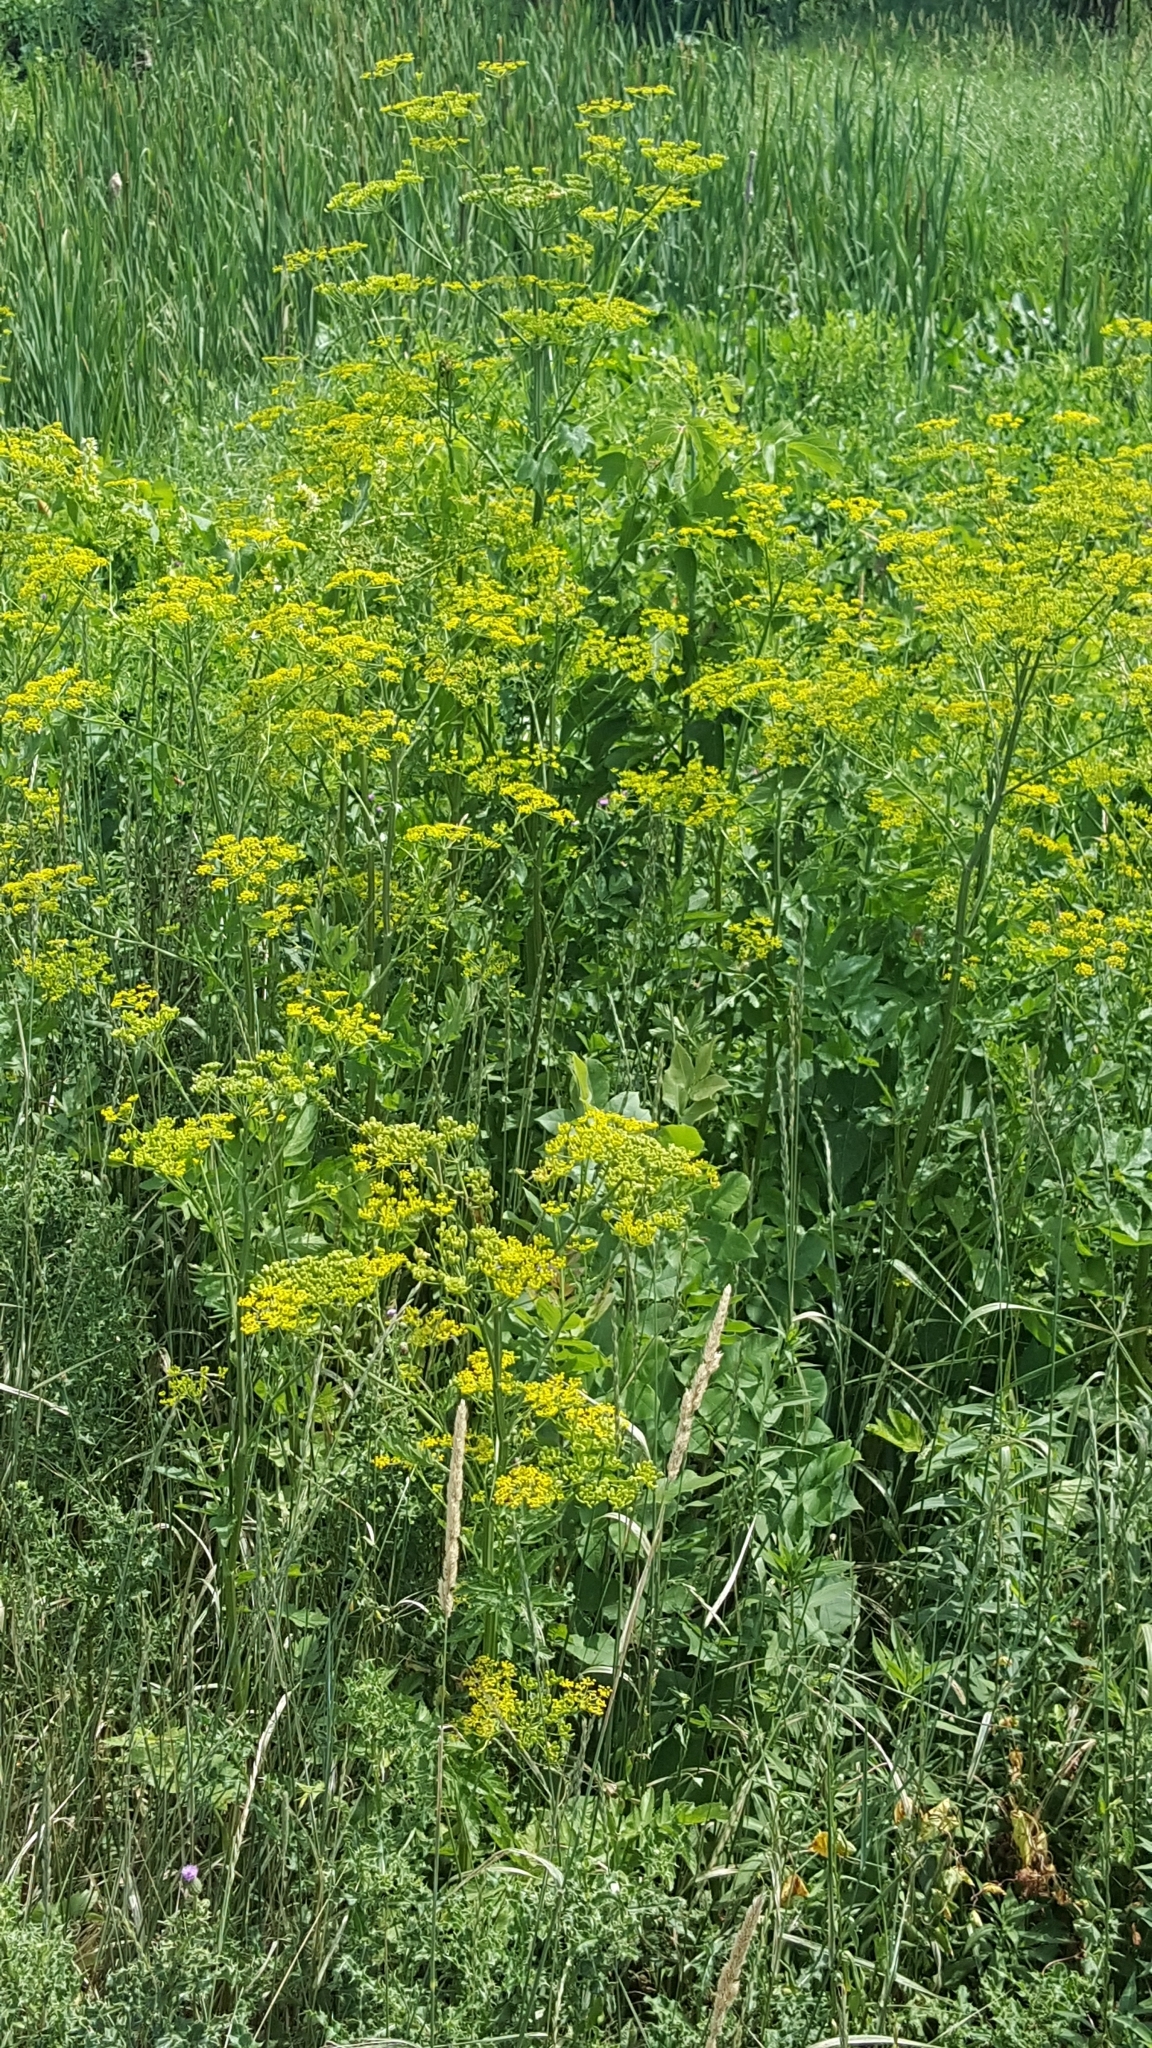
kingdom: Plantae
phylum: Tracheophyta
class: Magnoliopsida
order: Apiales
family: Apiaceae
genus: Pastinaca
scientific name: Pastinaca sativa
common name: Wild parsnip
